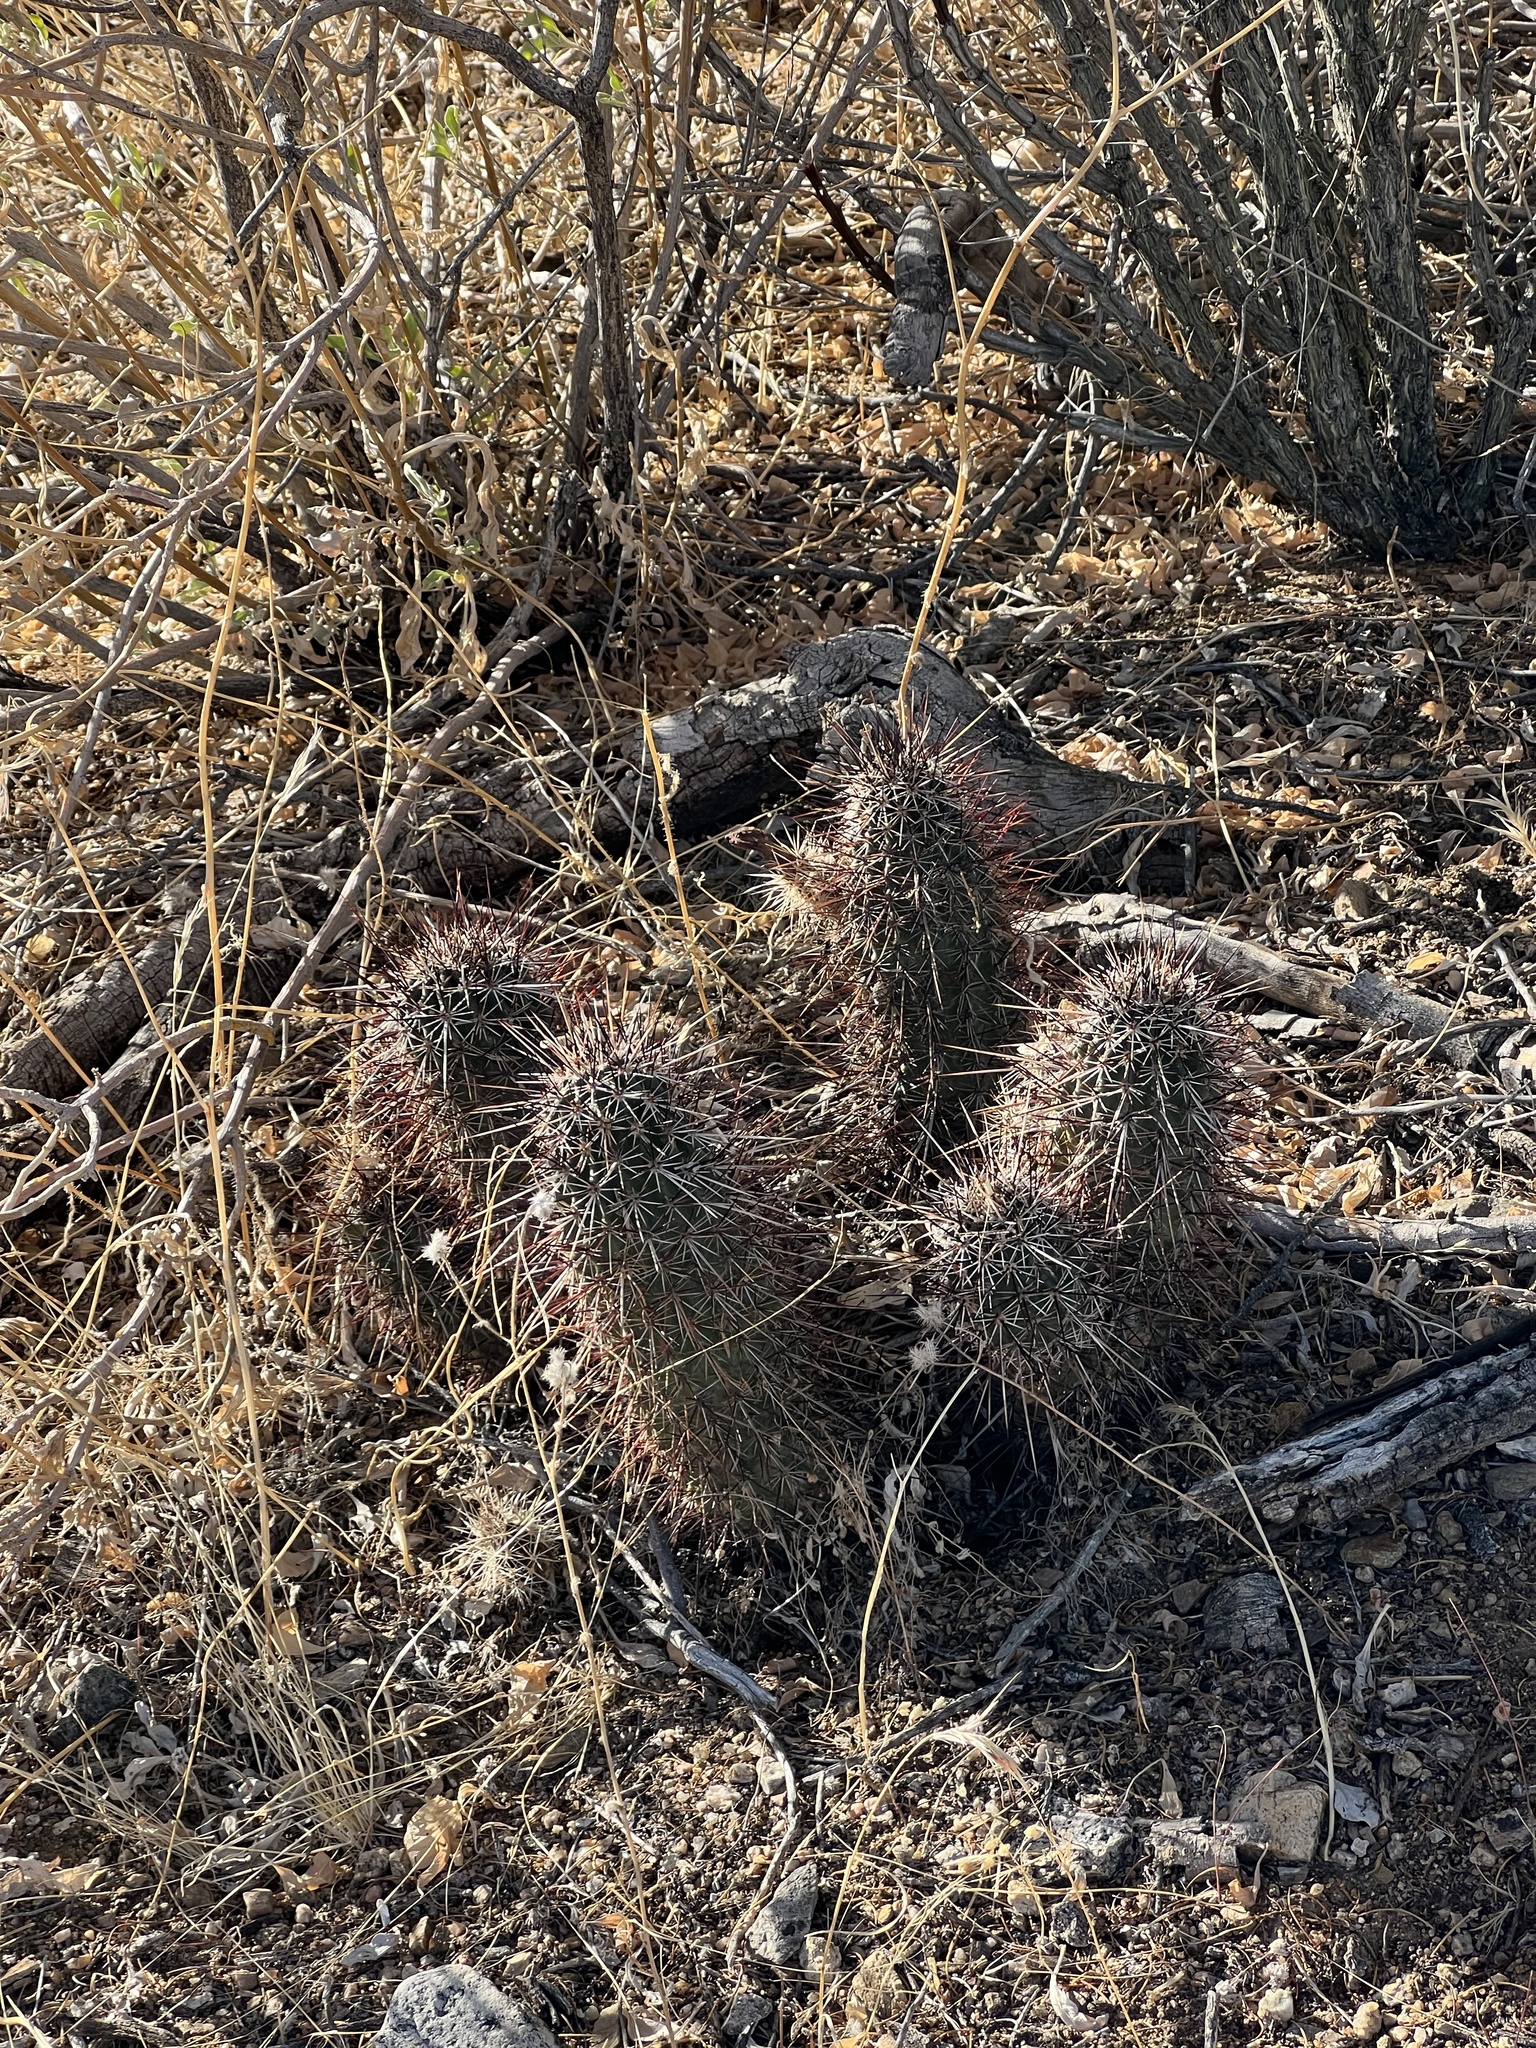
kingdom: Plantae
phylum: Tracheophyta
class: Magnoliopsida
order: Caryophyllales
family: Cactaceae
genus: Echinocereus
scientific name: Echinocereus engelmannii
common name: Engelmann's hedgehog cactus
